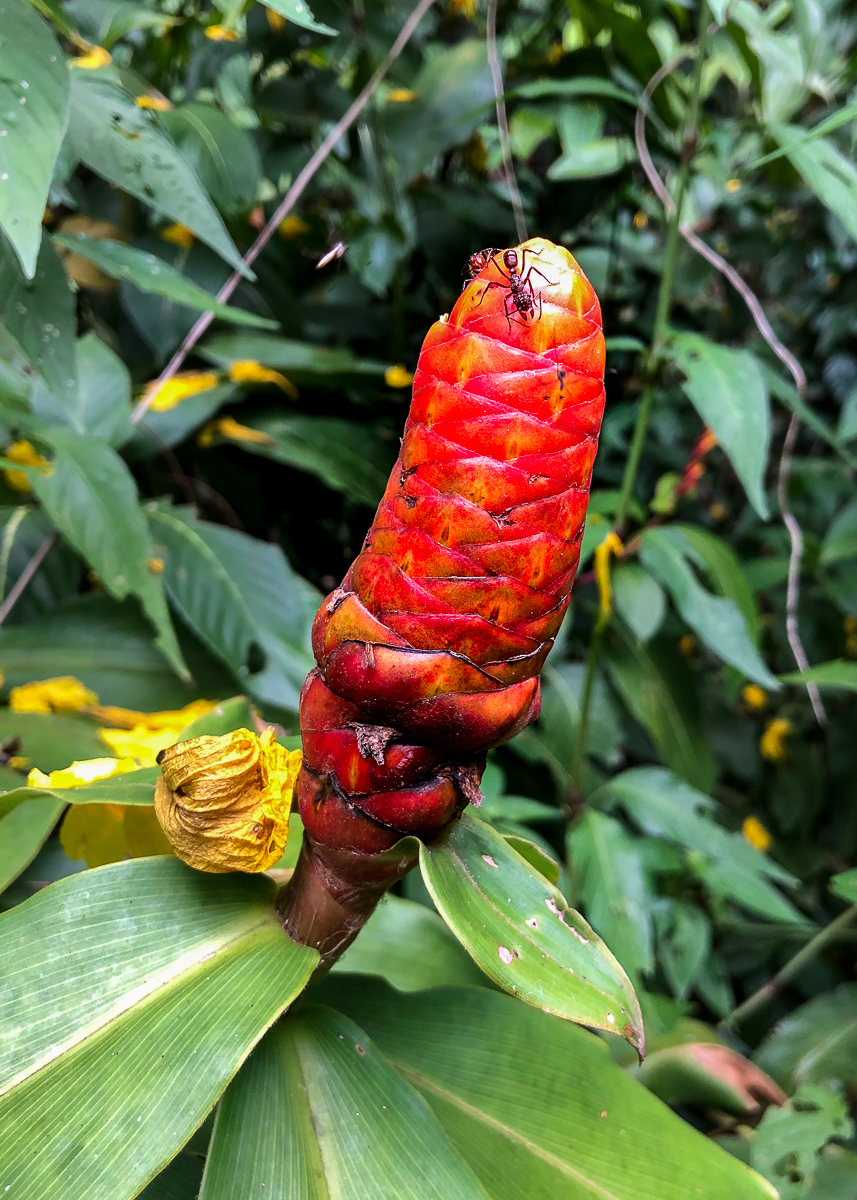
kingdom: Plantae
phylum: Tracheophyta
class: Liliopsida
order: Zingiberales
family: Costaceae
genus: Costus
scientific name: Costus scaber
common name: Spiral head ginger
